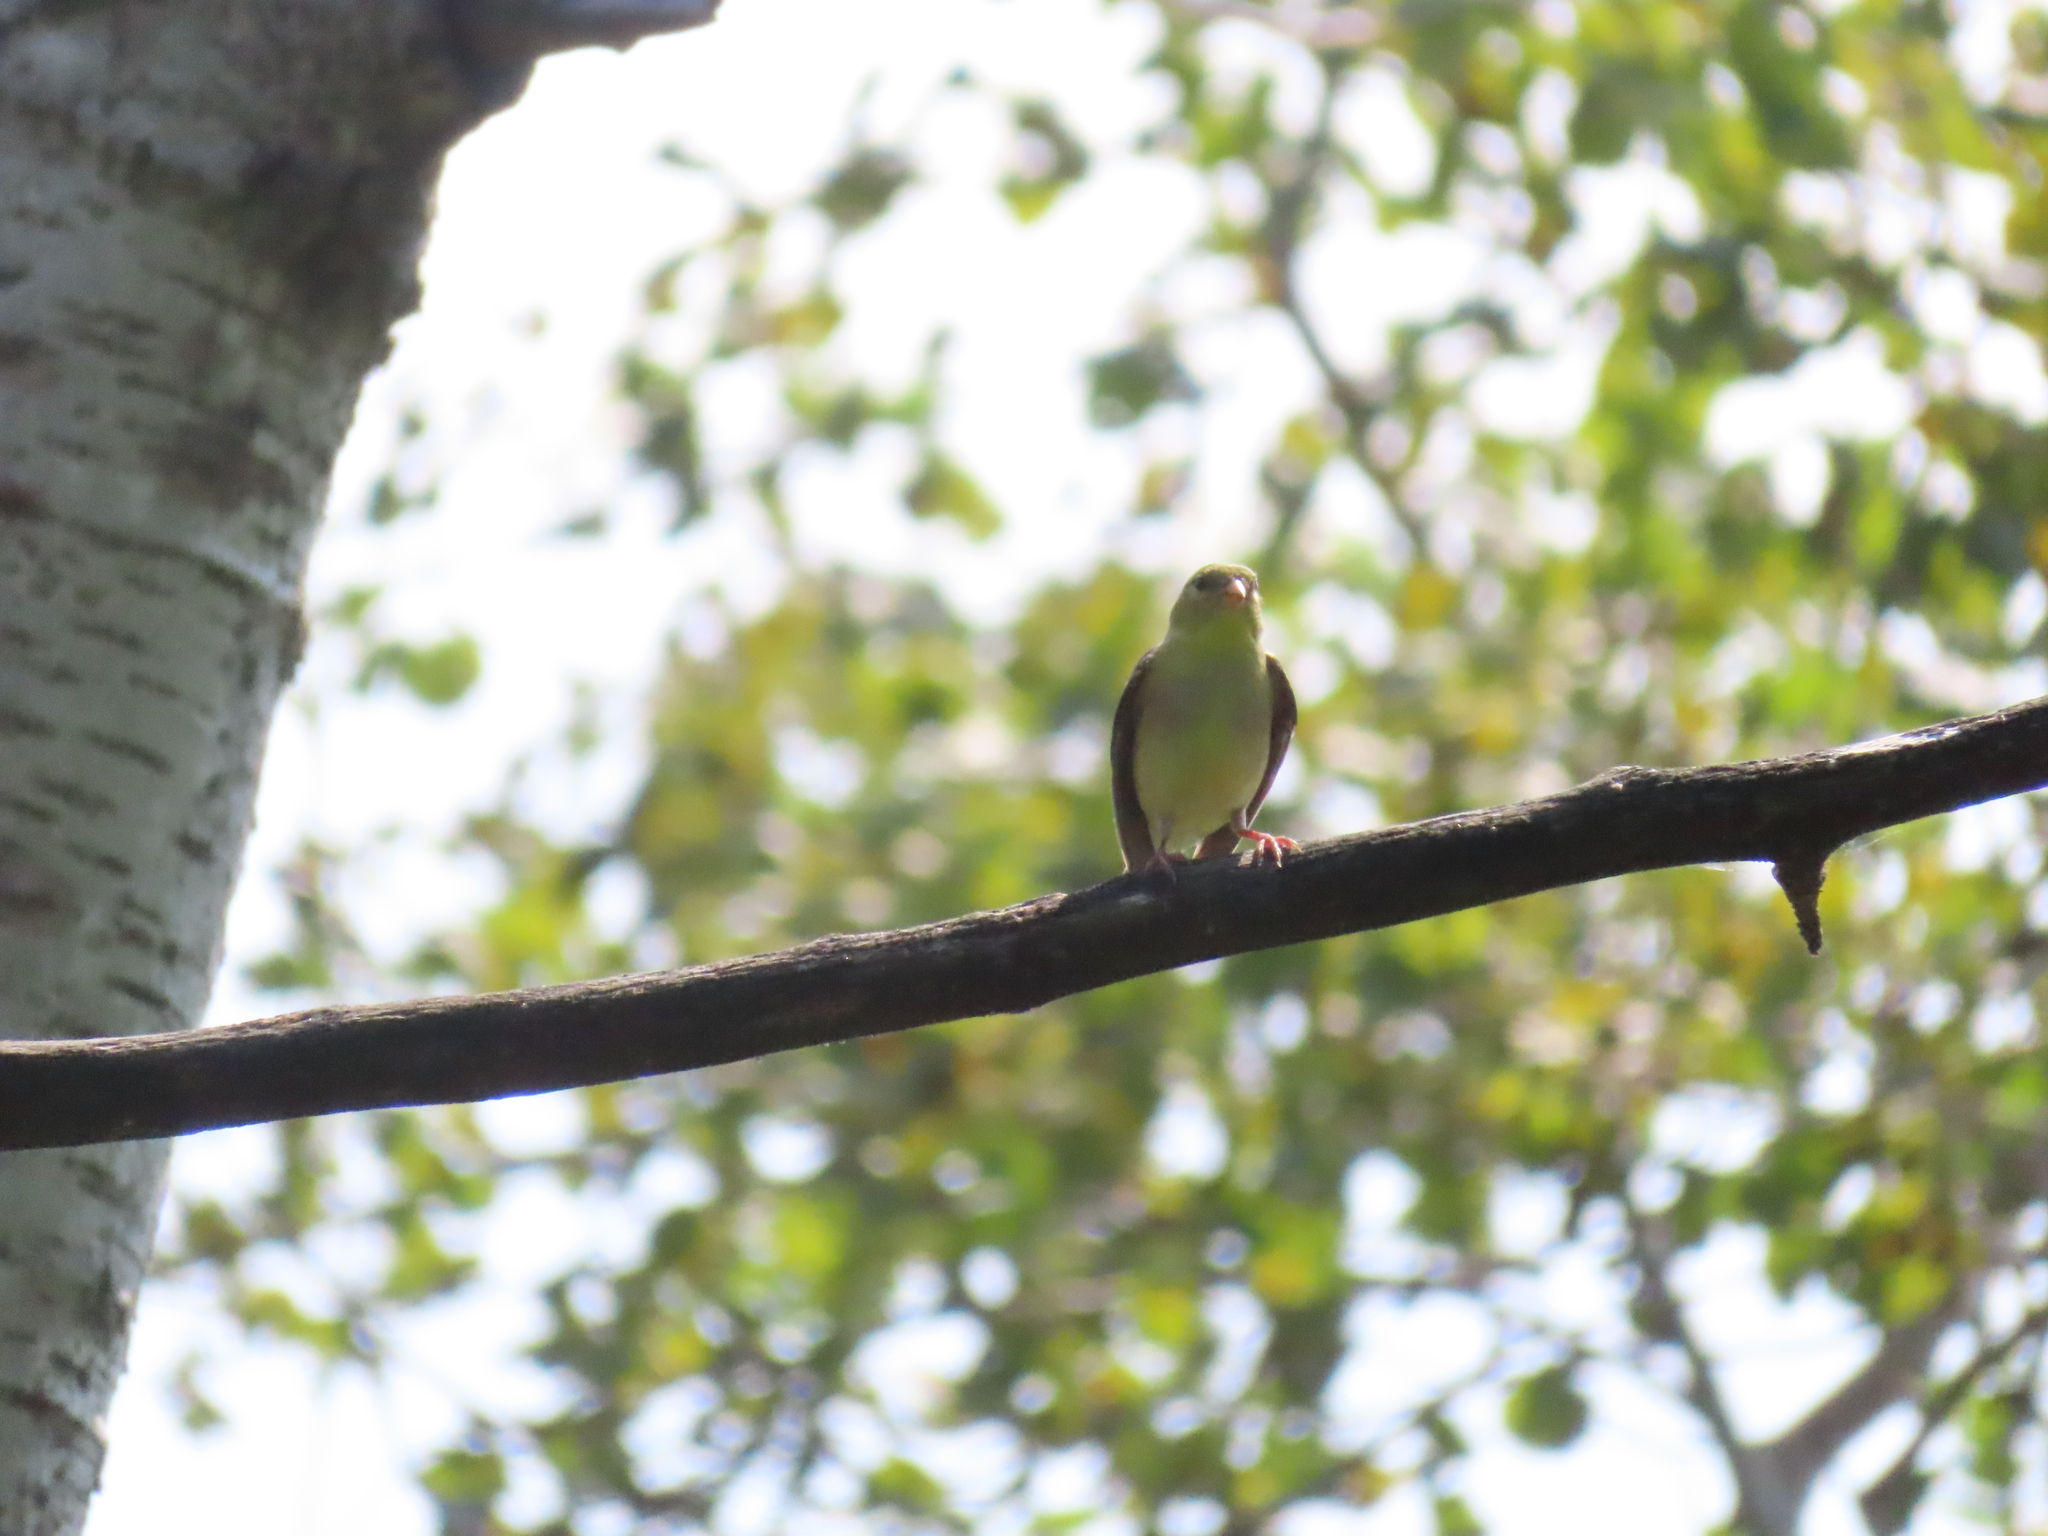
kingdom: Animalia
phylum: Chordata
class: Aves
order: Passeriformes
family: Fringillidae
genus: Spinus
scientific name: Spinus tristis
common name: American goldfinch
